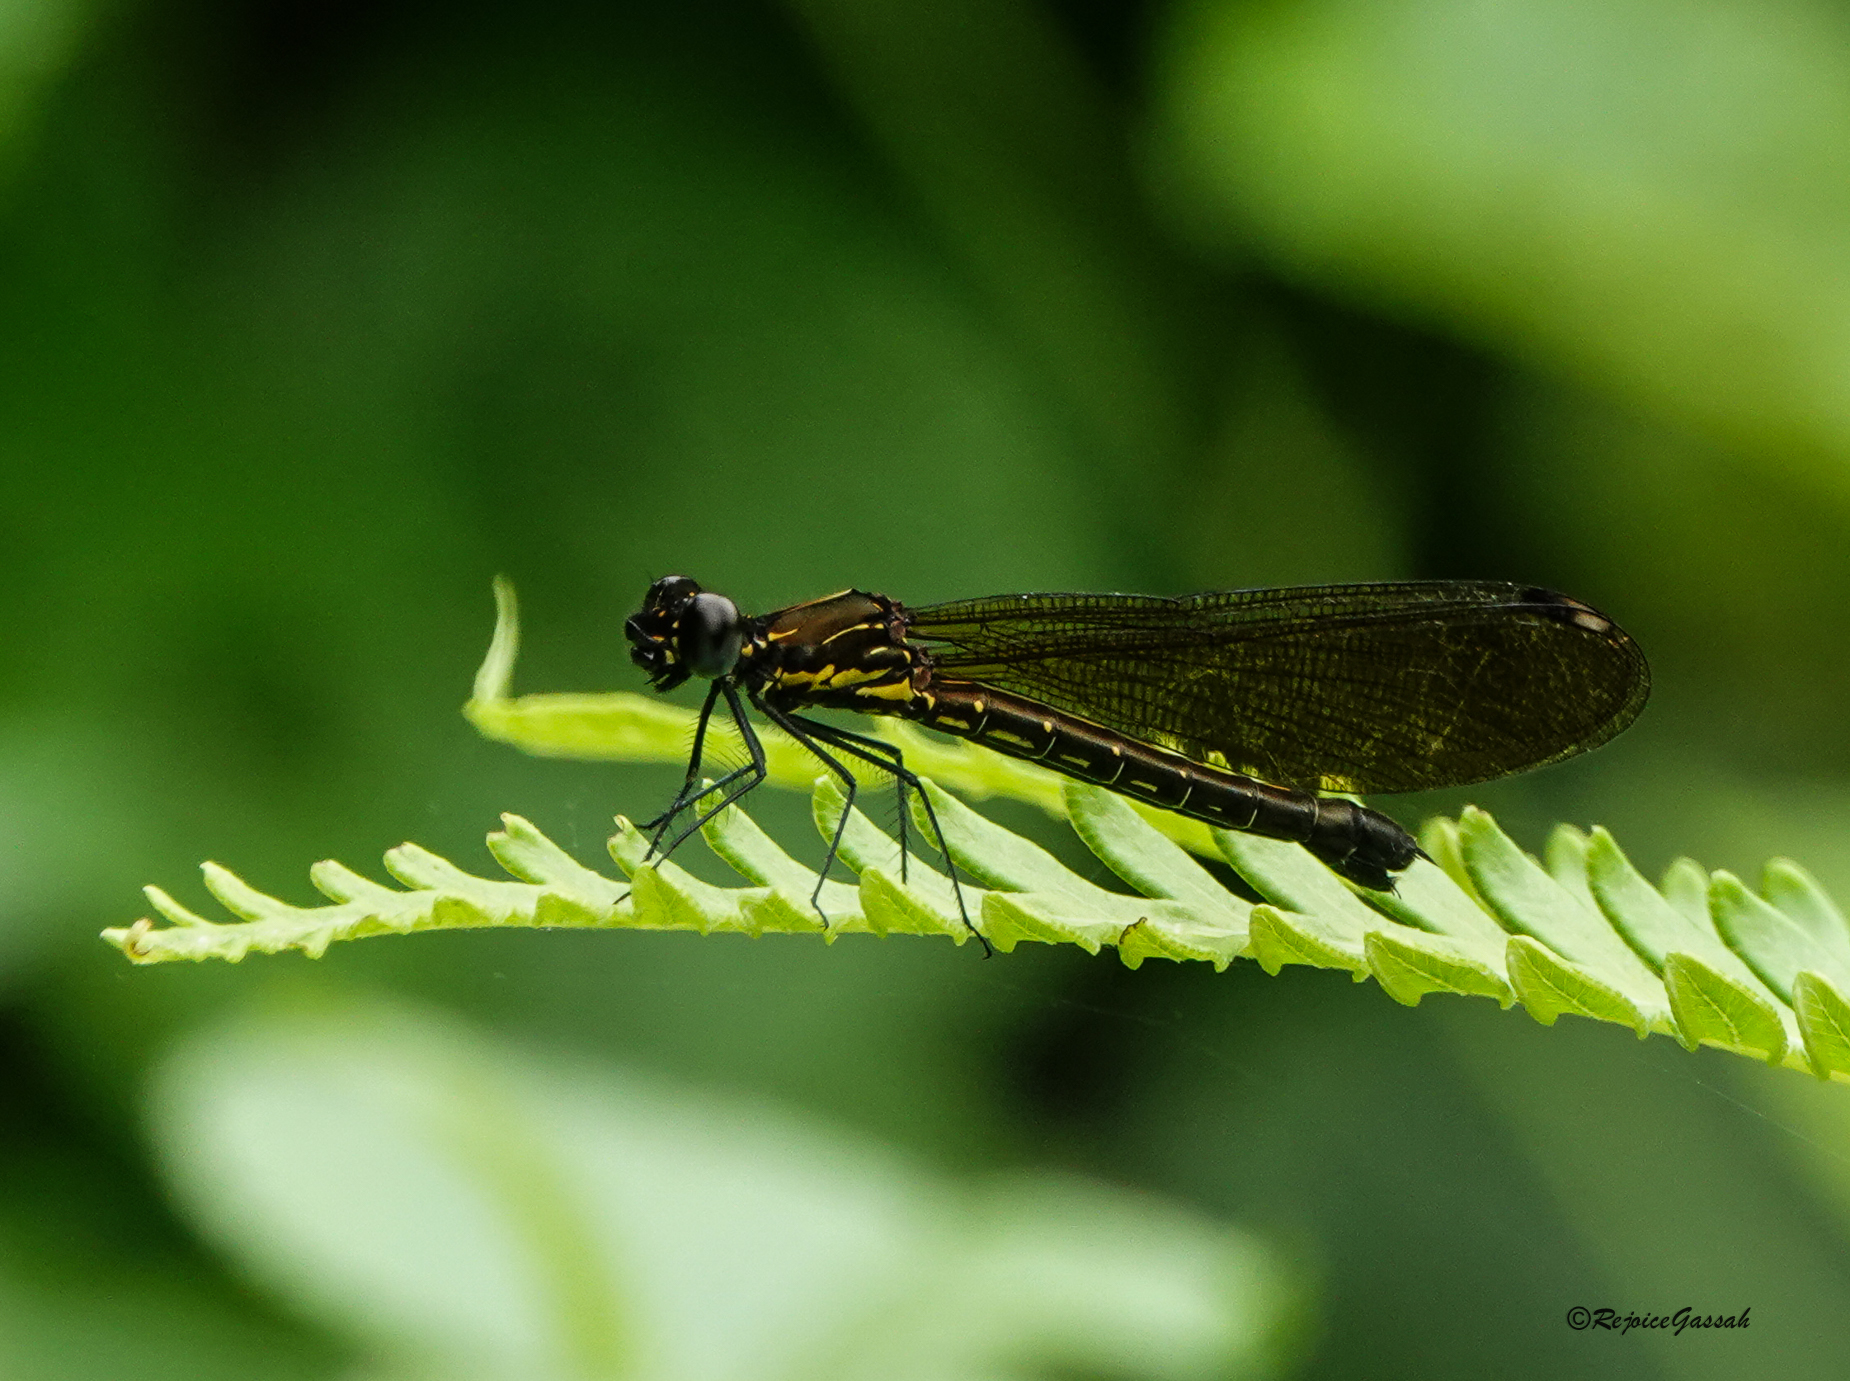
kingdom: Animalia
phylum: Arthropoda
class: Insecta
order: Odonata
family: Chlorocyphidae
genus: Aristocypha
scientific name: Aristocypha quadrimaculata
